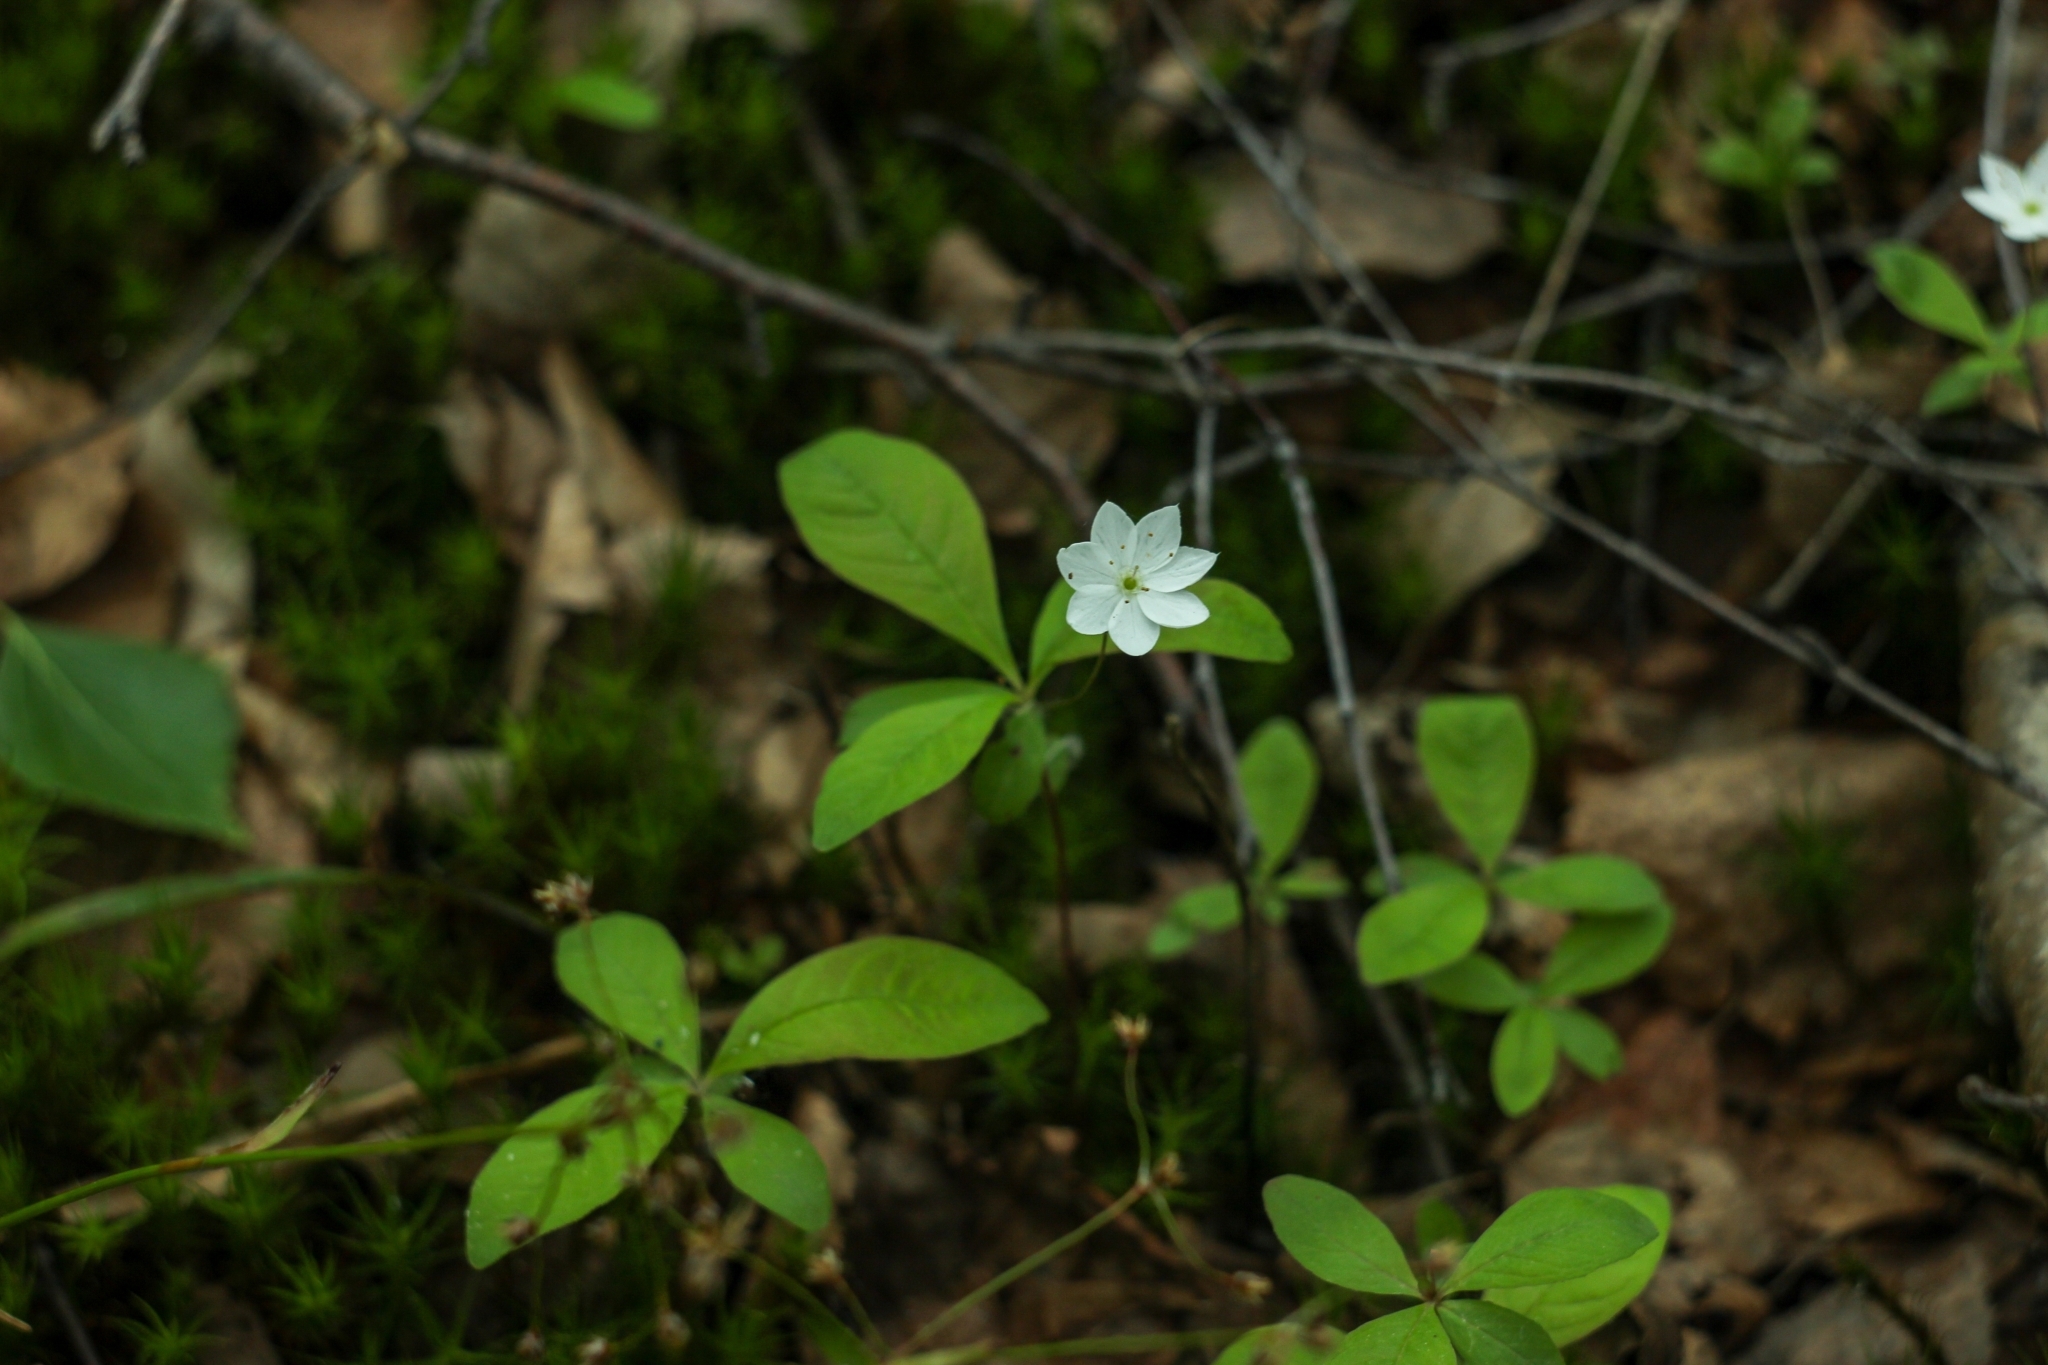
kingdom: Plantae
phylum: Tracheophyta
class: Magnoliopsida
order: Ericales
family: Primulaceae
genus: Lysimachia
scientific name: Lysimachia europaea
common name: Arctic starflower
